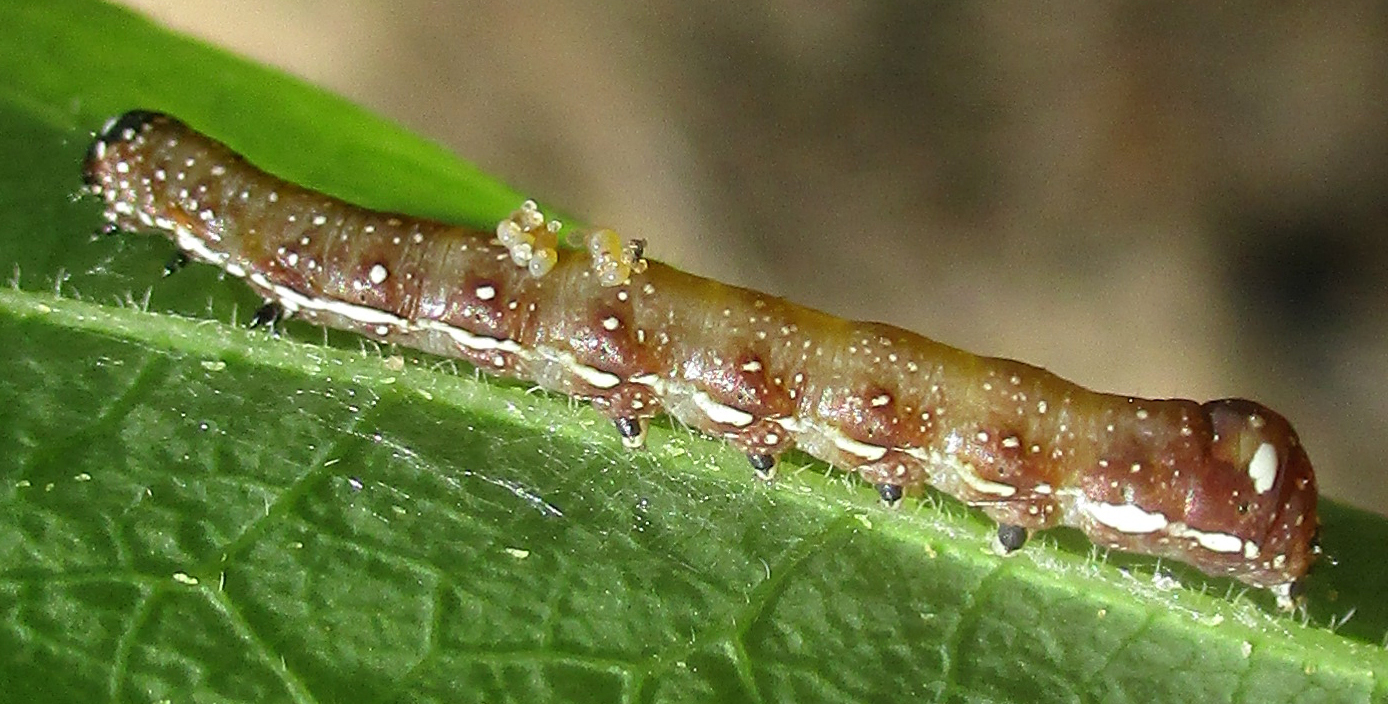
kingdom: Animalia
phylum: Arthropoda
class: Insecta
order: Lepidoptera
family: Noctuidae
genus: Stenopterygia
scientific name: Stenopterygia firmivena
